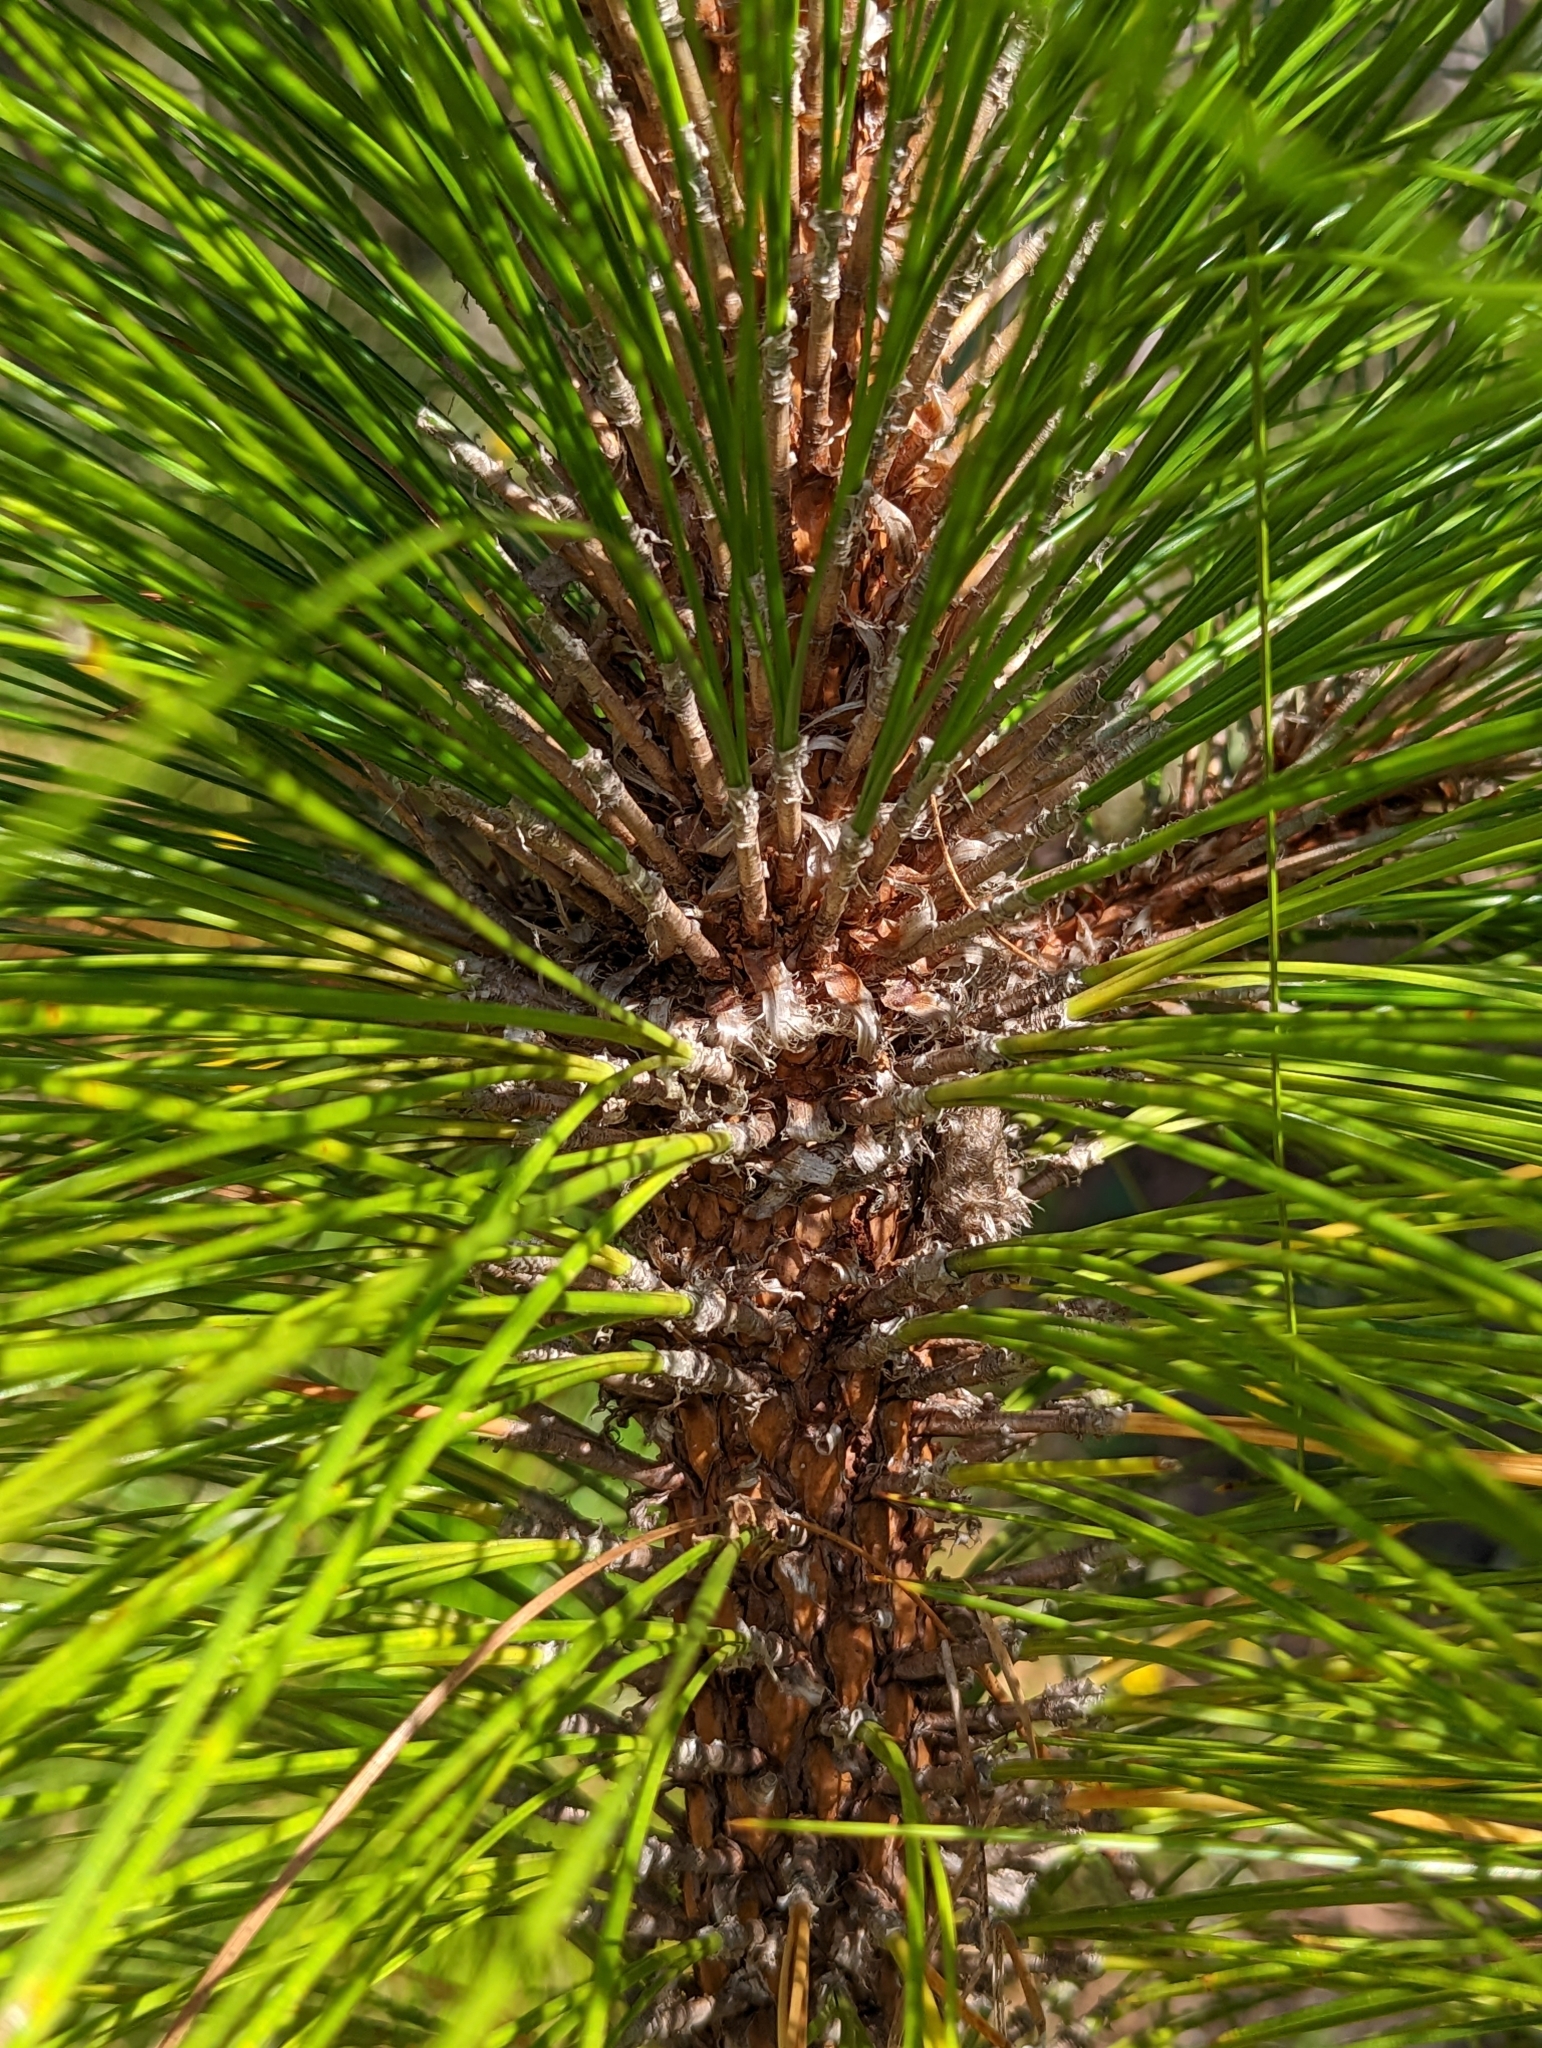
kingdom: Plantae
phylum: Tracheophyta
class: Pinopsida
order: Pinales
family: Pinaceae
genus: Pinus
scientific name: Pinus palustris
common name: Longleaf pine
